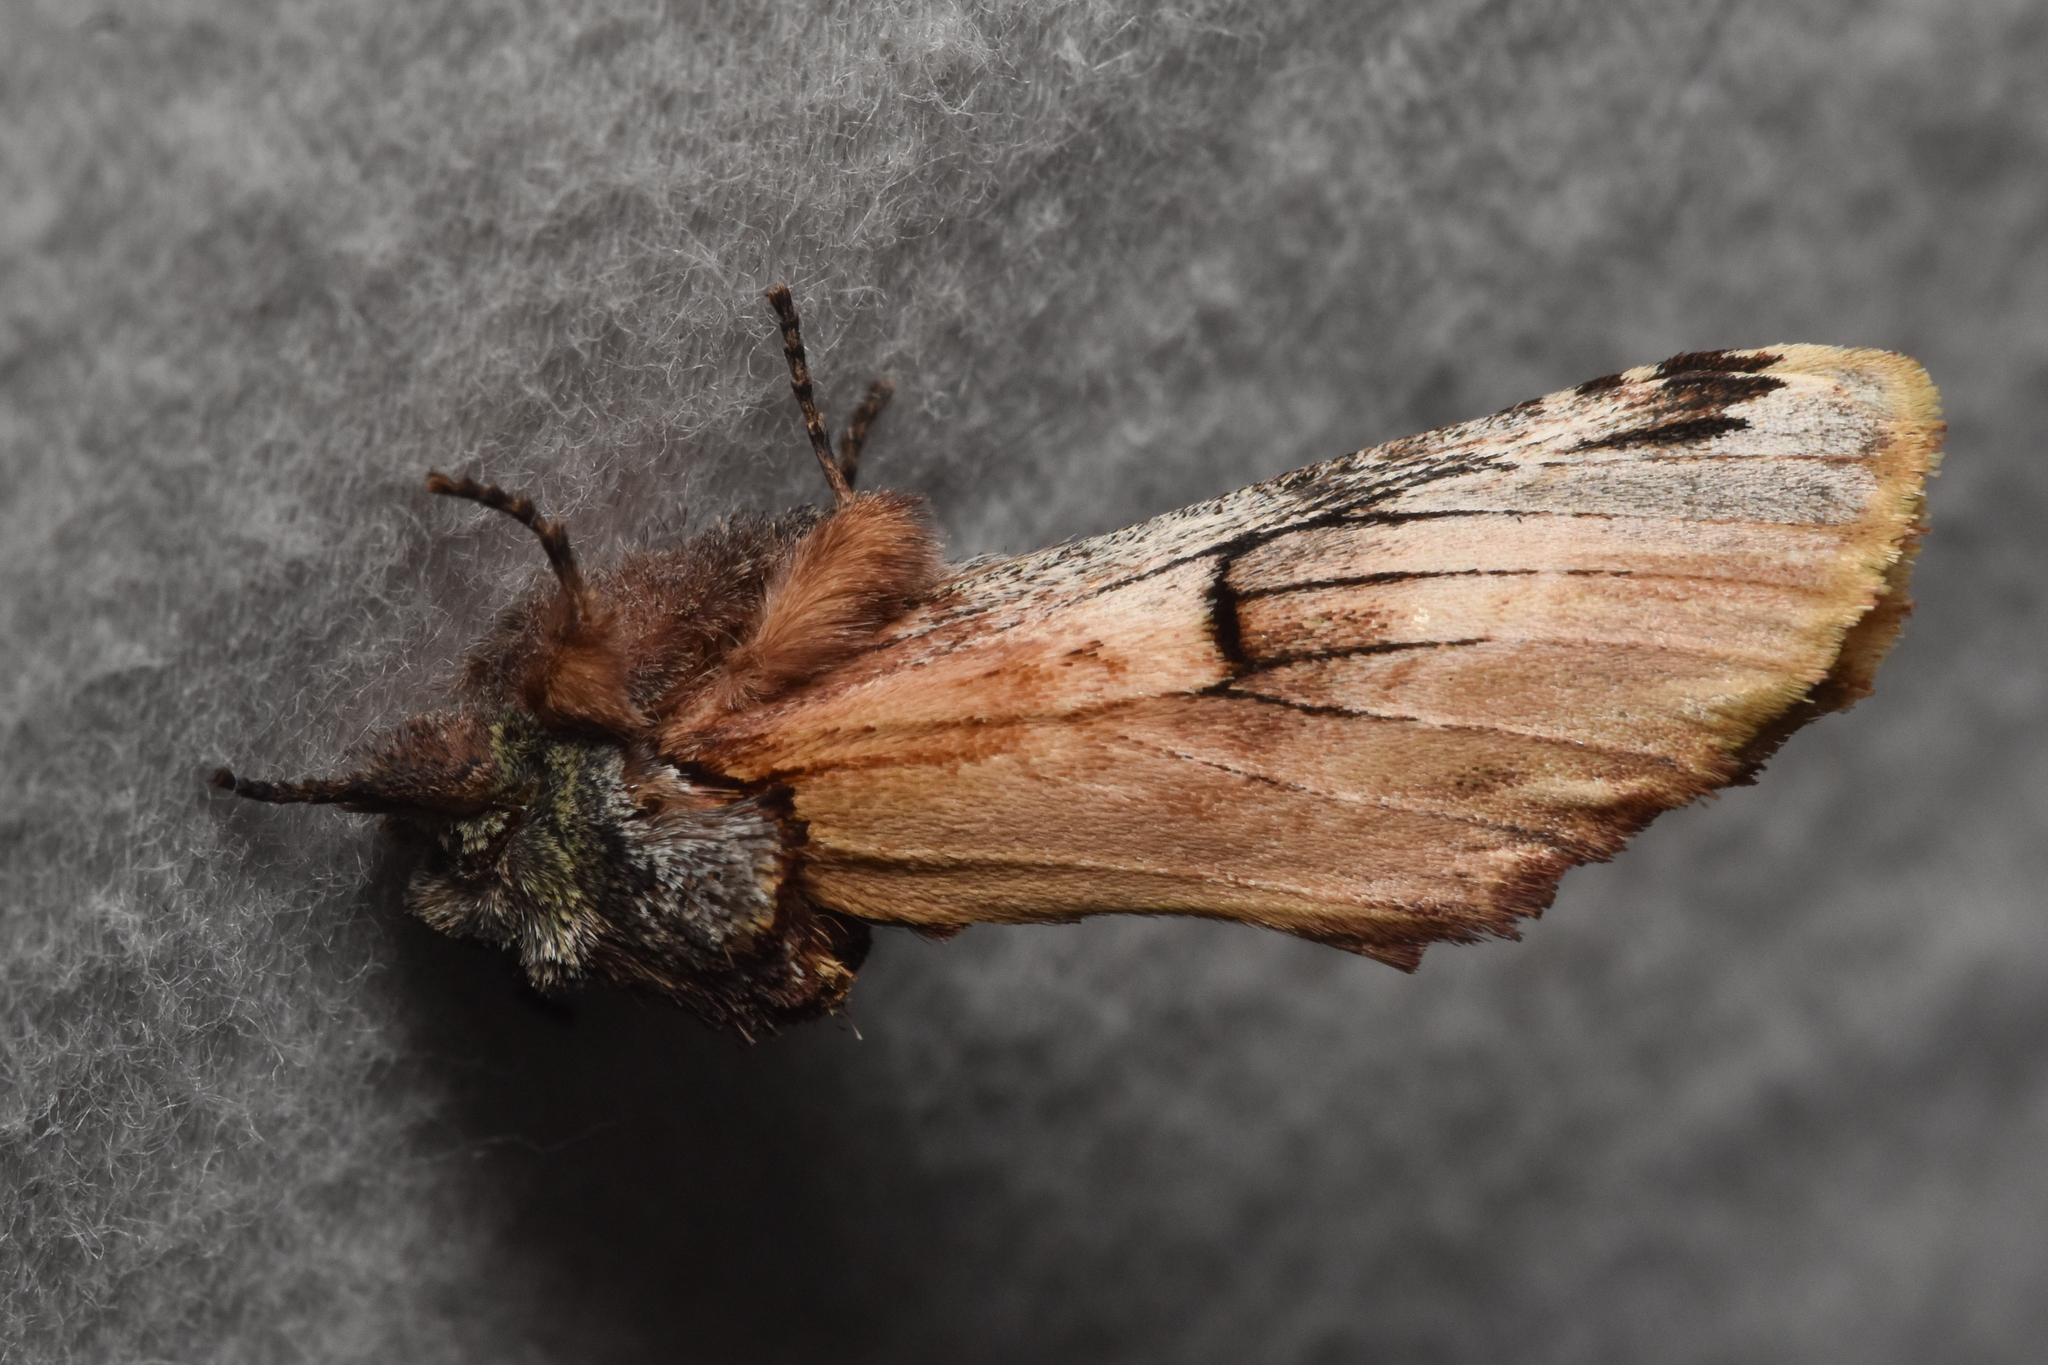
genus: Ianassa
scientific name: Ianassa
